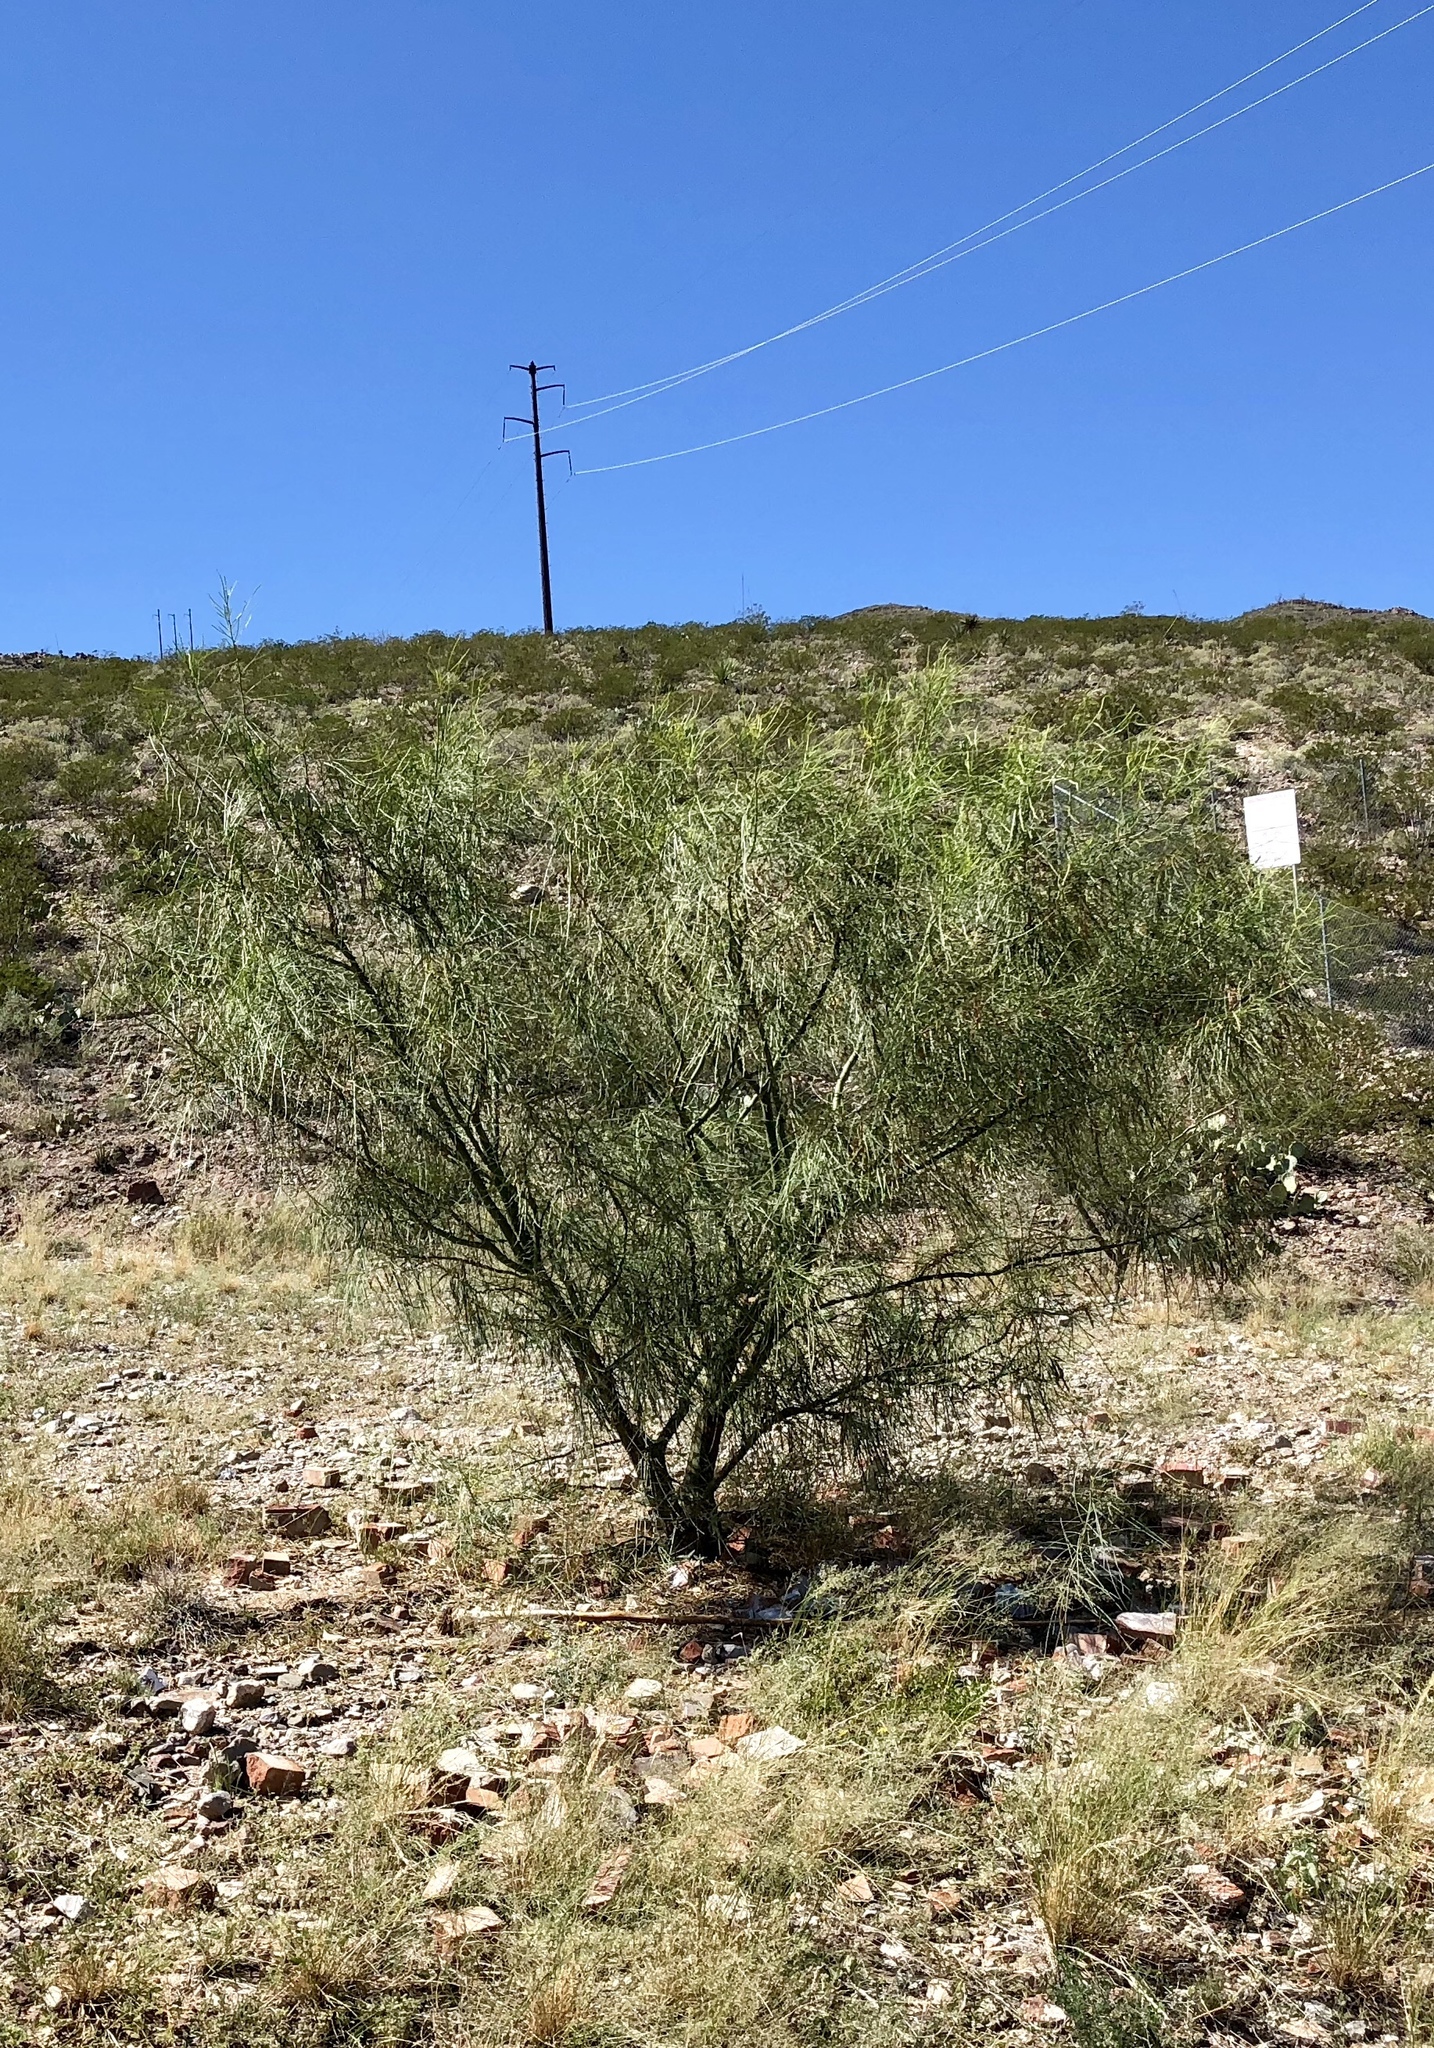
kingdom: Plantae
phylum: Tracheophyta
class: Magnoliopsida
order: Lamiales
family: Bignoniaceae
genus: Chilopsis
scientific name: Chilopsis linearis
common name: Desert-willow
